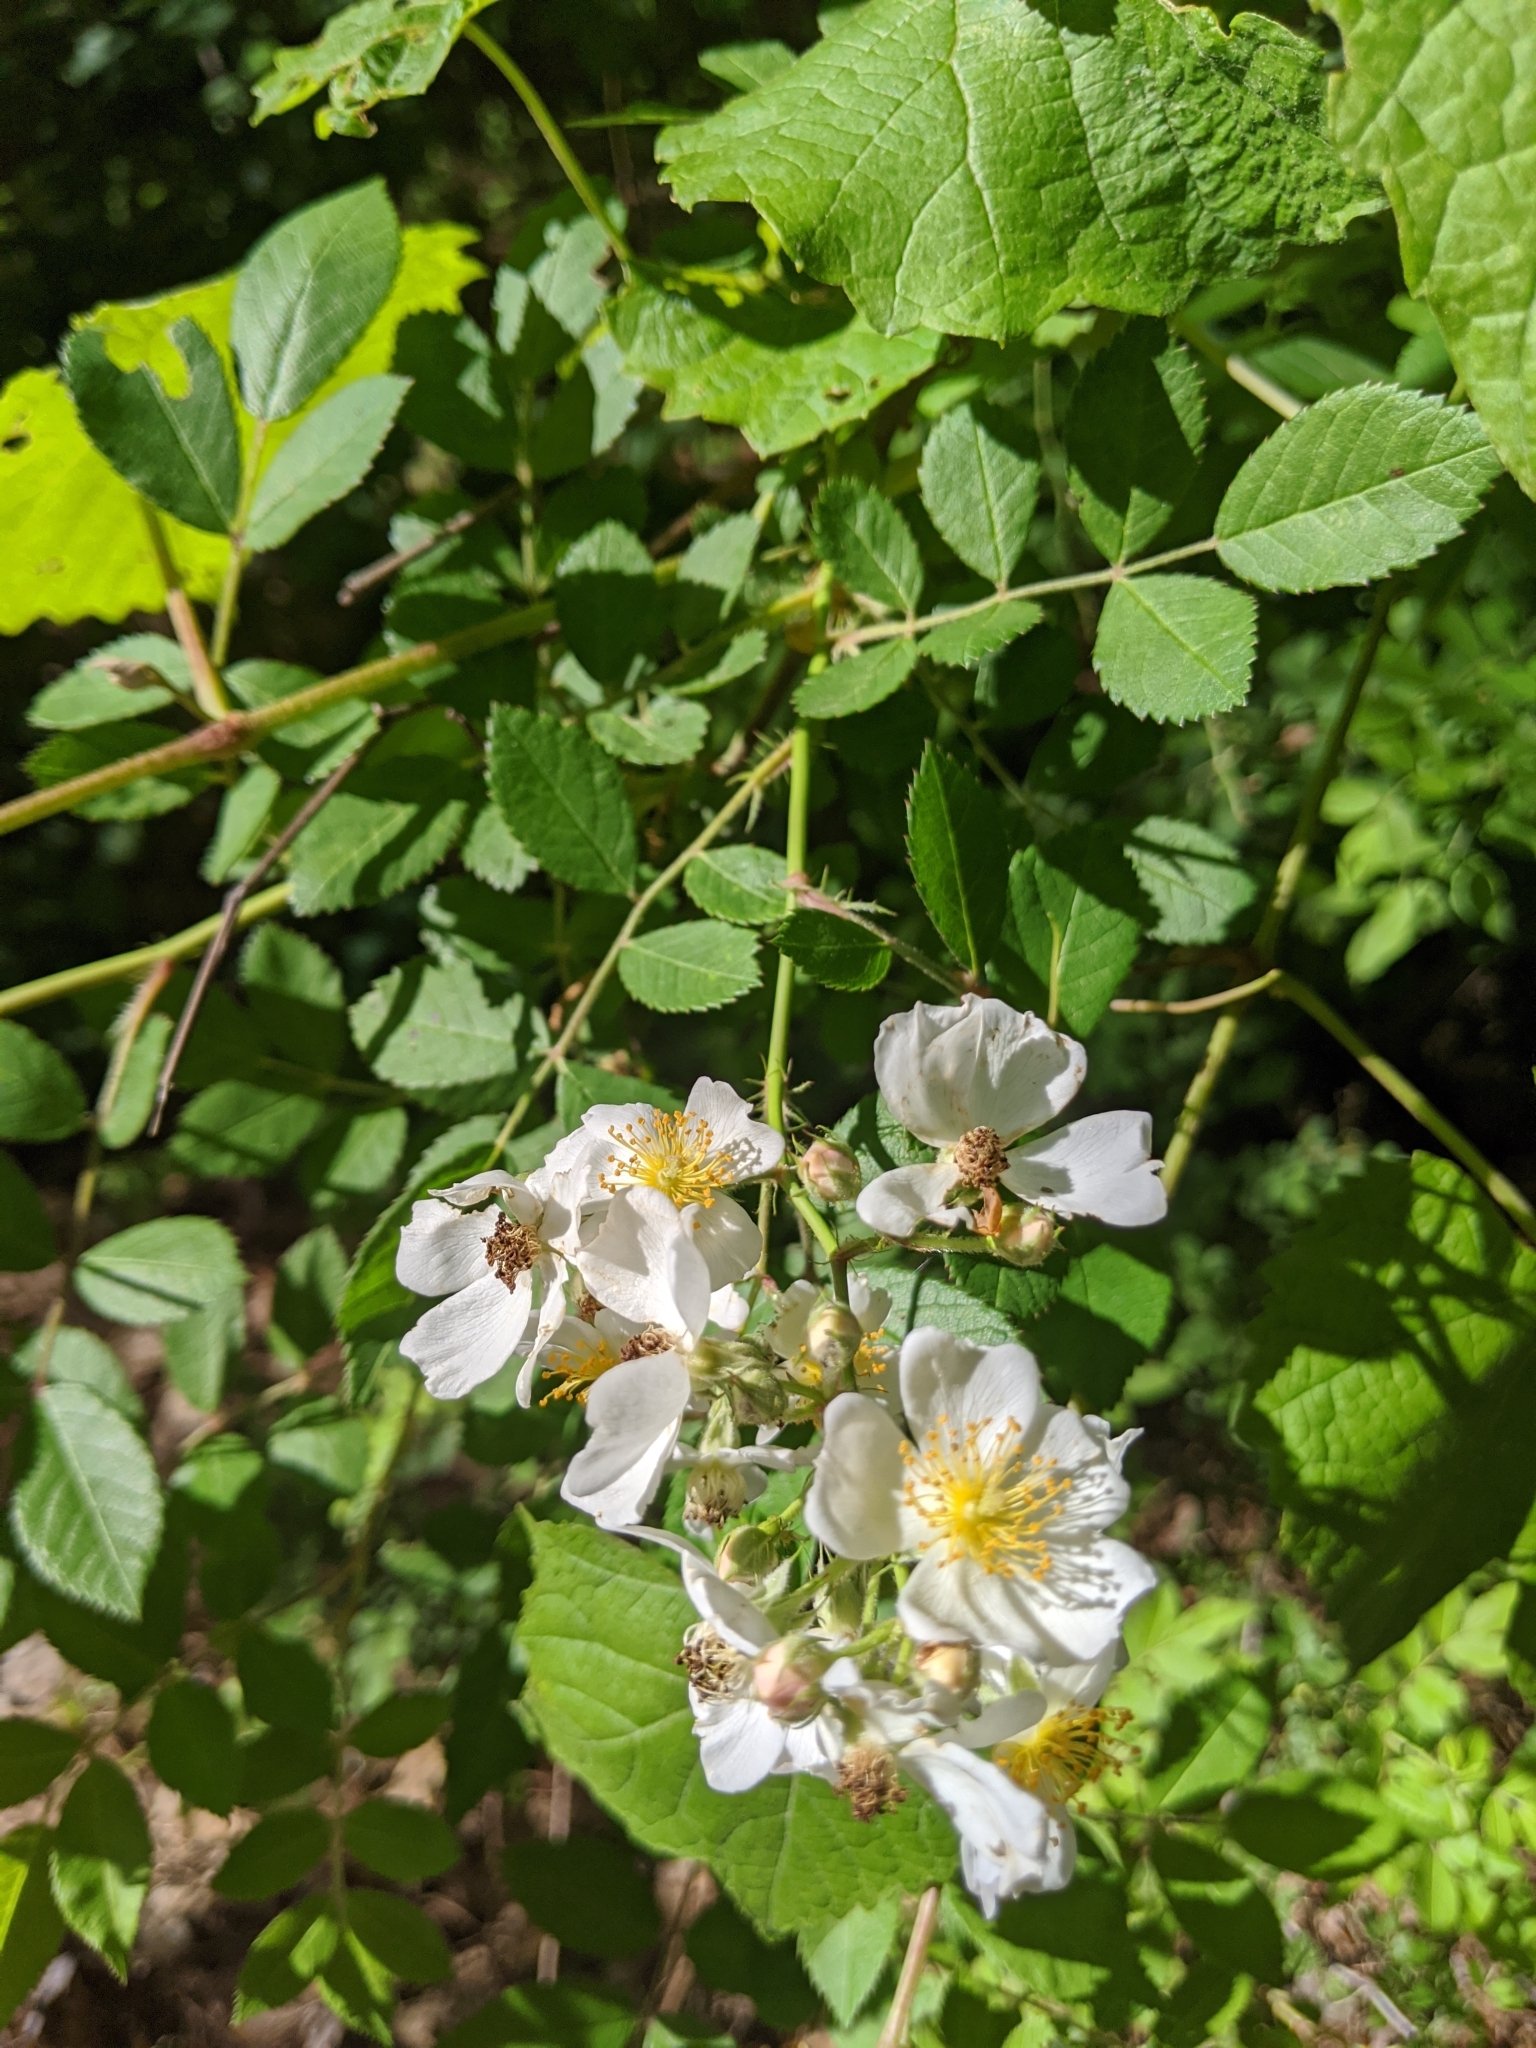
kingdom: Plantae
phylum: Tracheophyta
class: Magnoliopsida
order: Rosales
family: Rosaceae
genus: Rosa
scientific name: Rosa multiflora
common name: Multiflora rose
